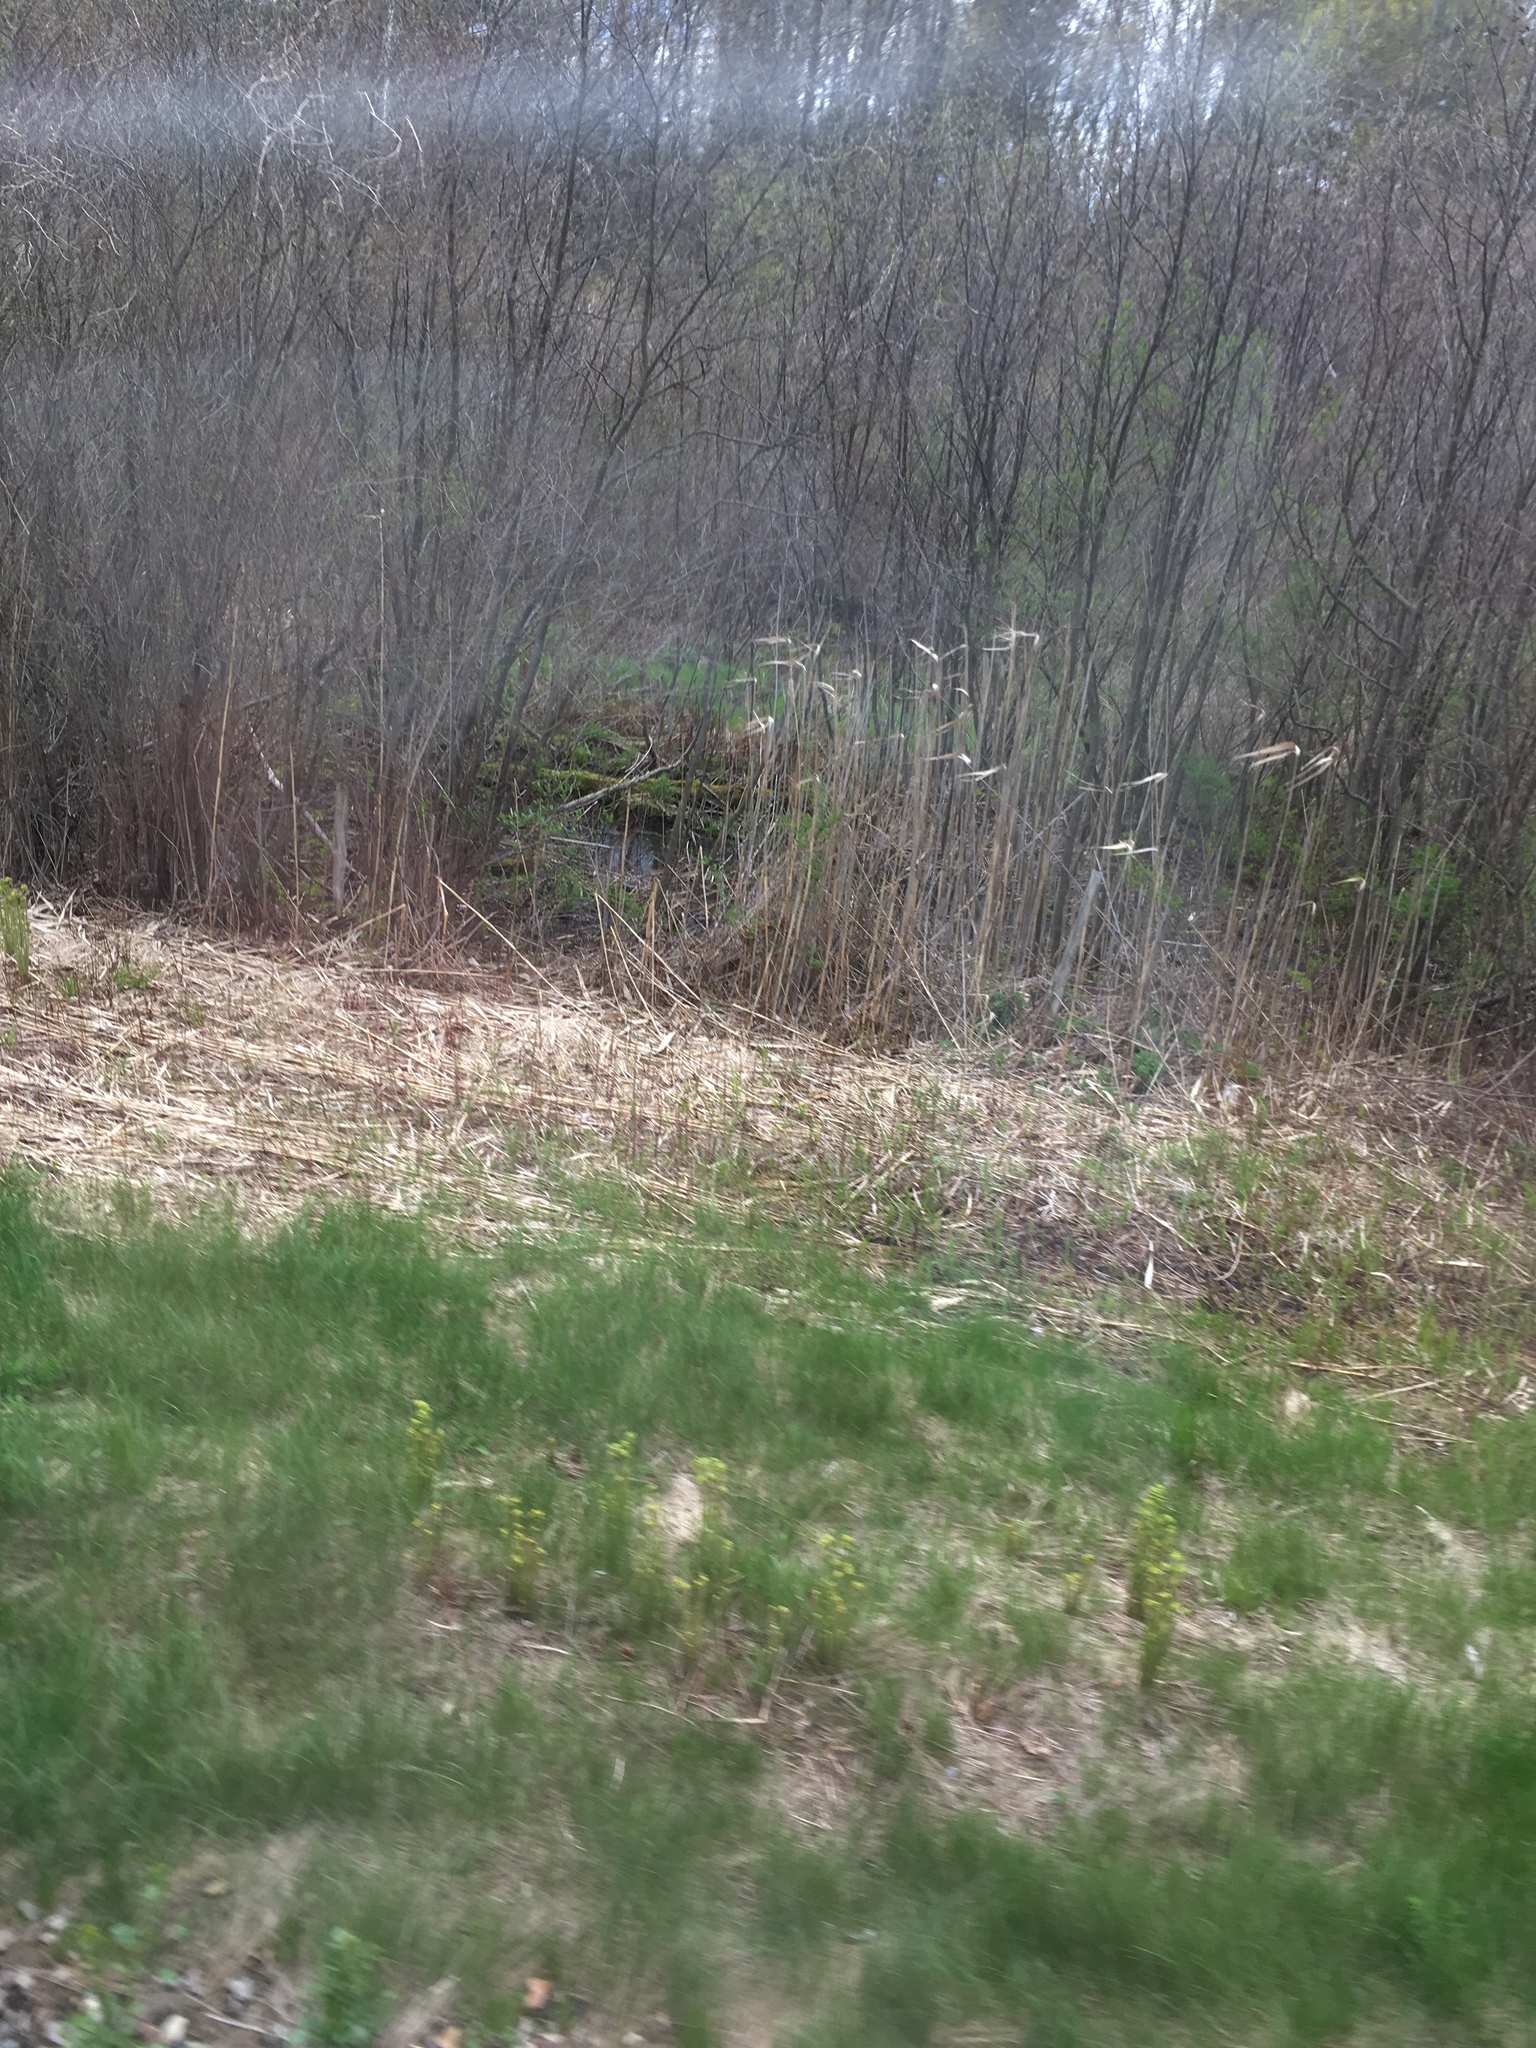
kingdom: Plantae
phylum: Tracheophyta
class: Liliopsida
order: Poales
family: Poaceae
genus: Phragmites
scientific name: Phragmites australis
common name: Common reed
